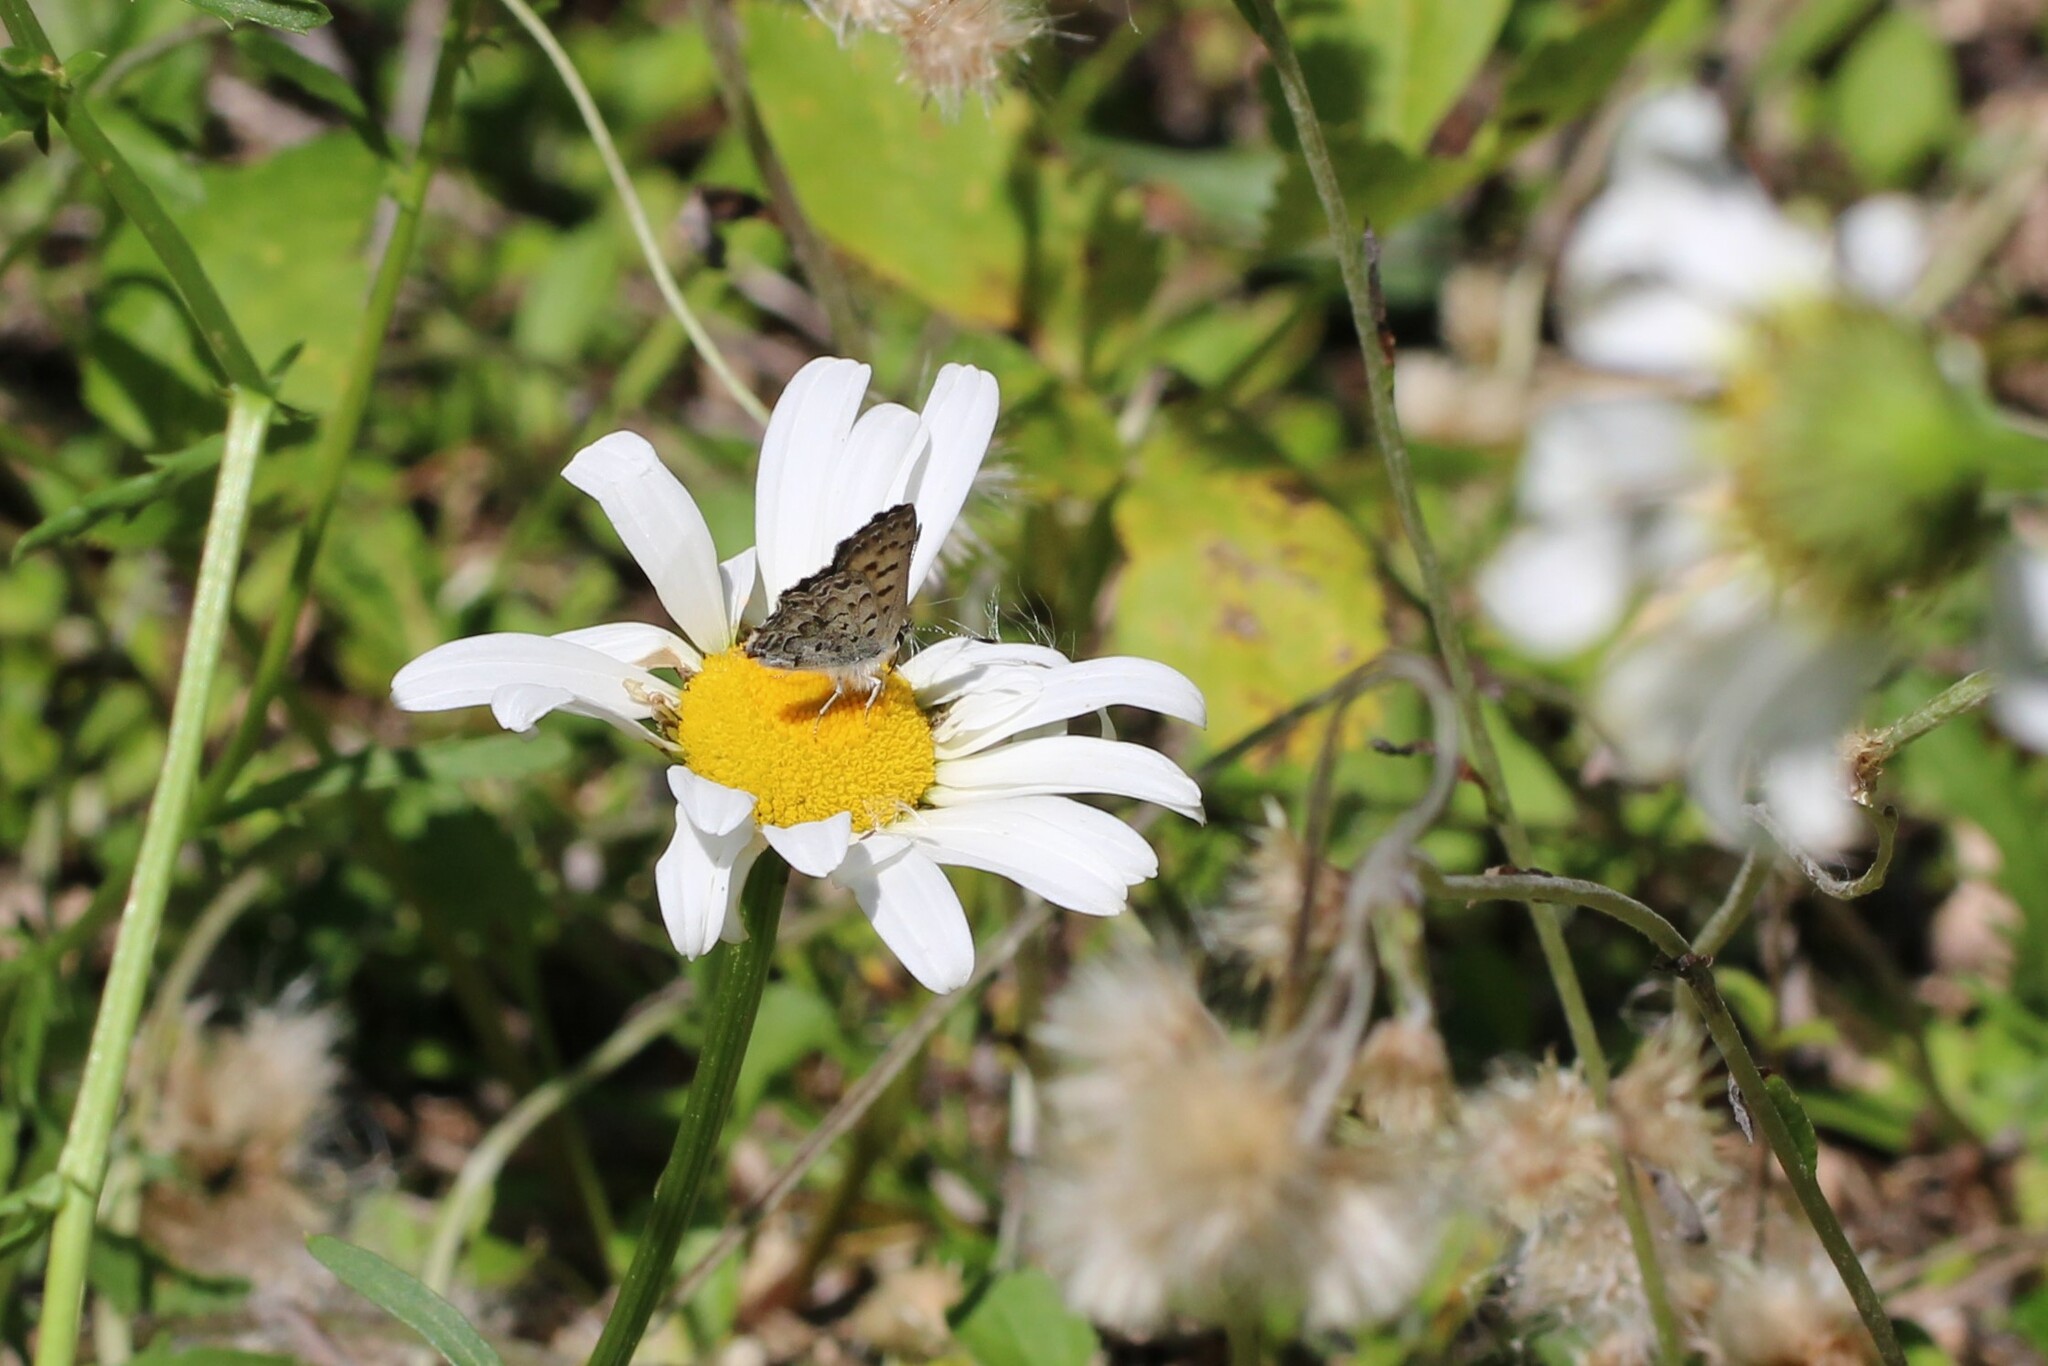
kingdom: Animalia
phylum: Arthropoda
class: Insecta
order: Lepidoptera
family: Lycaenidae
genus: Tharsalea
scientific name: Tharsalea mariposa
